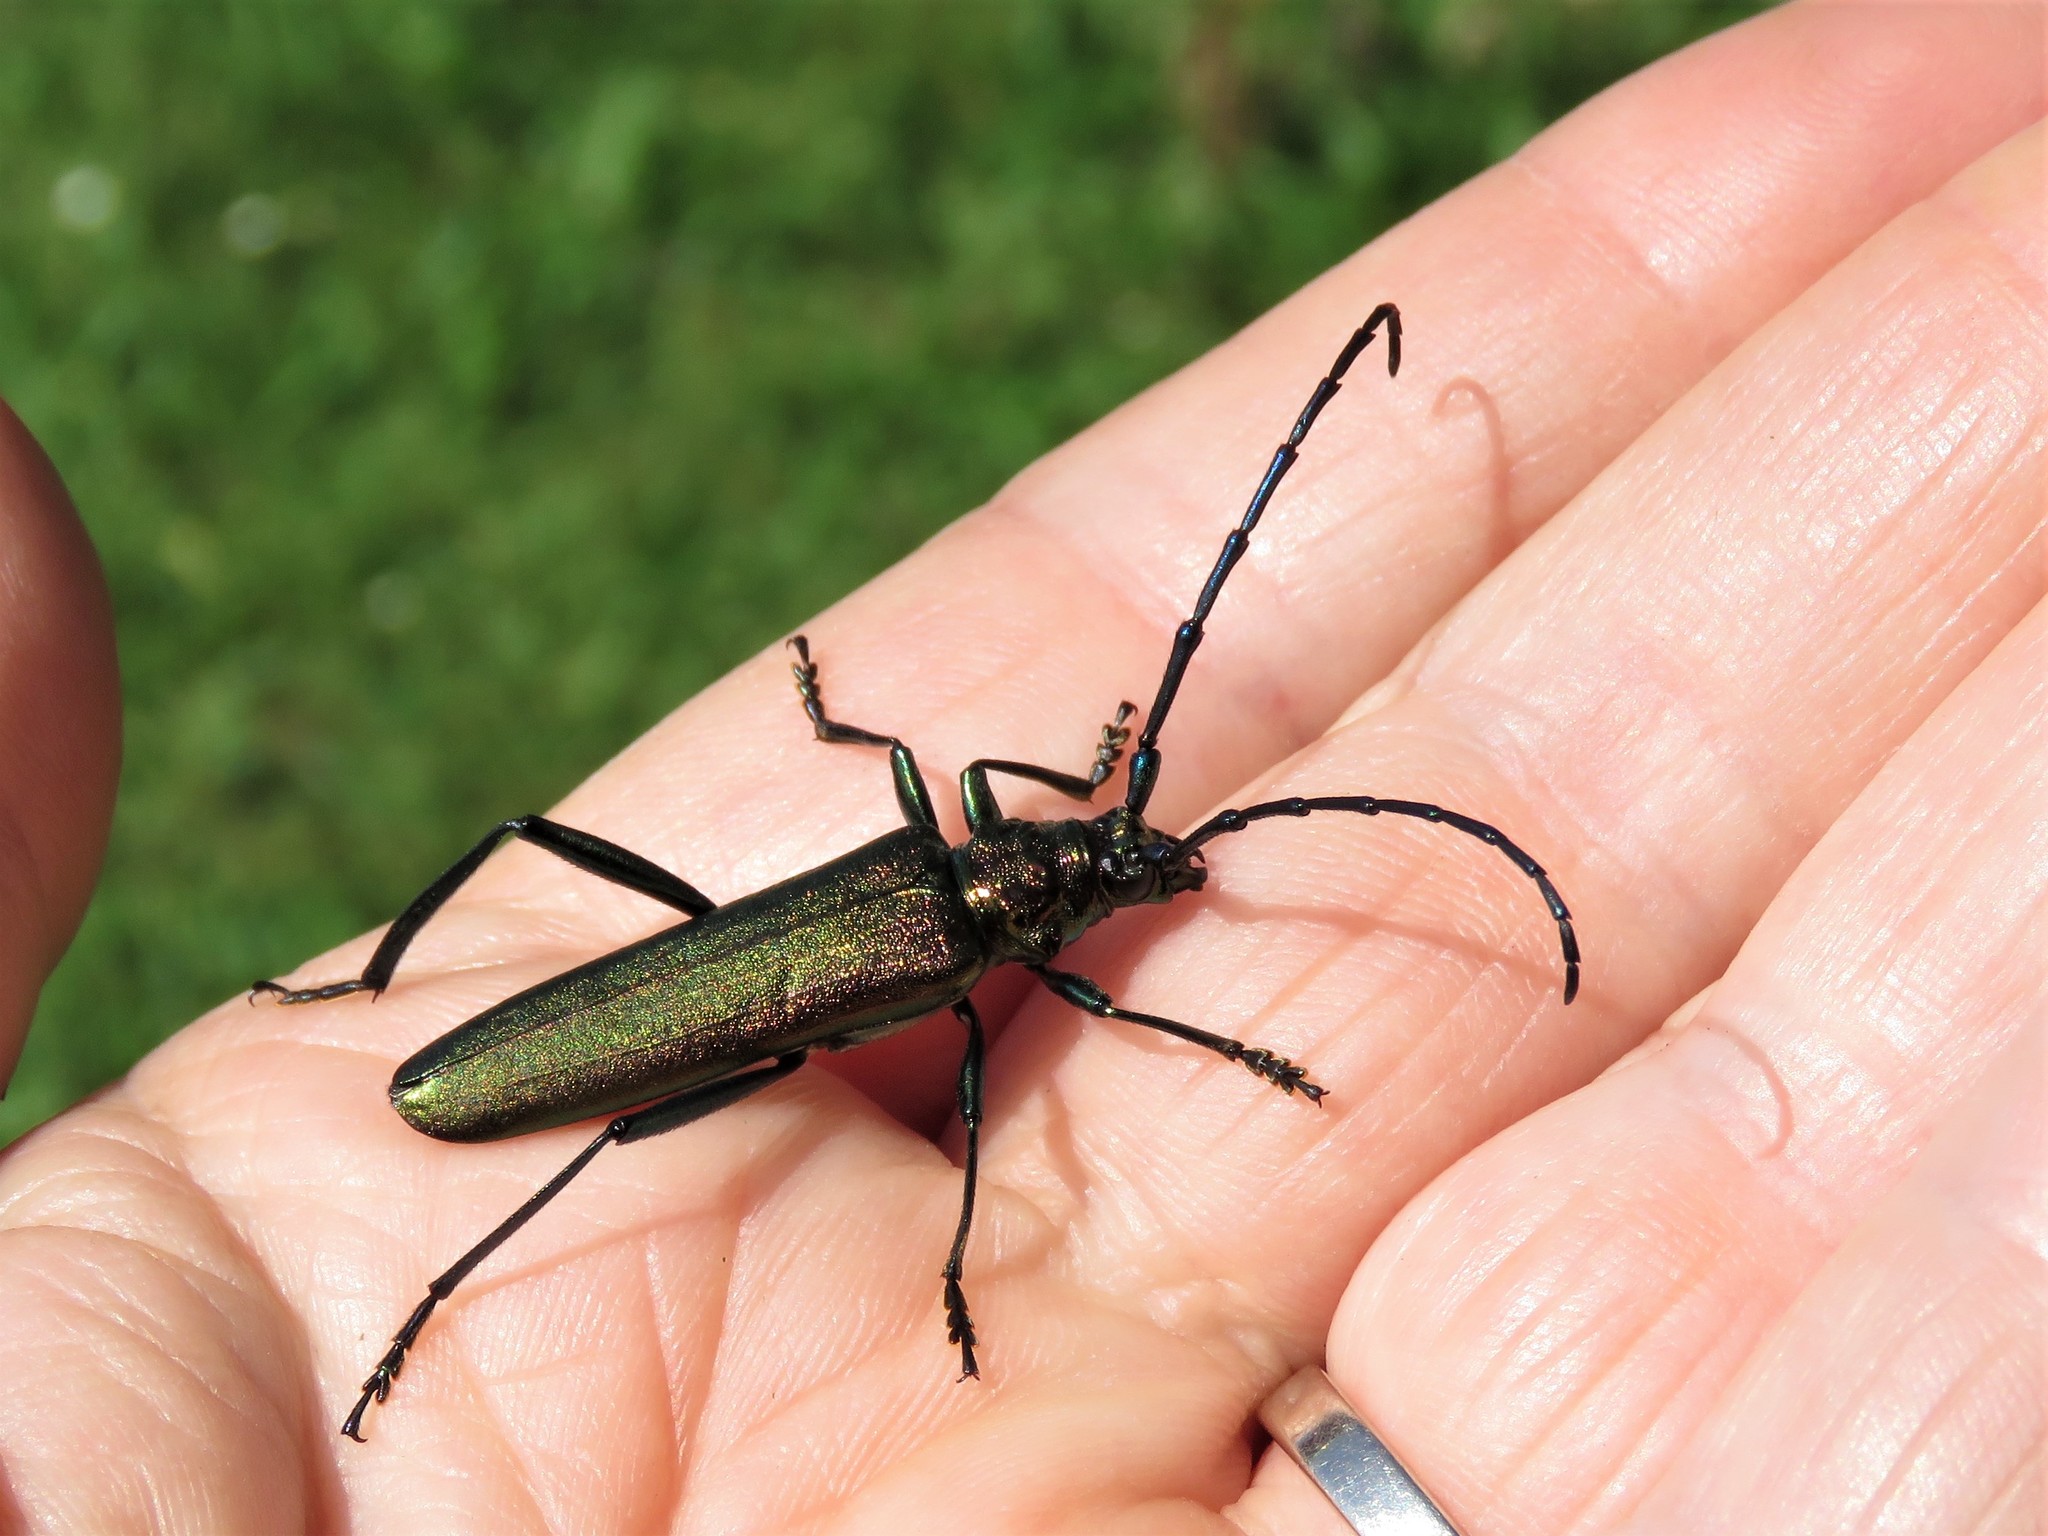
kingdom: Animalia
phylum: Arthropoda
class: Insecta
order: Coleoptera
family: Cerambycidae
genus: Aromia
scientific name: Aromia moschata
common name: Musk beetle
